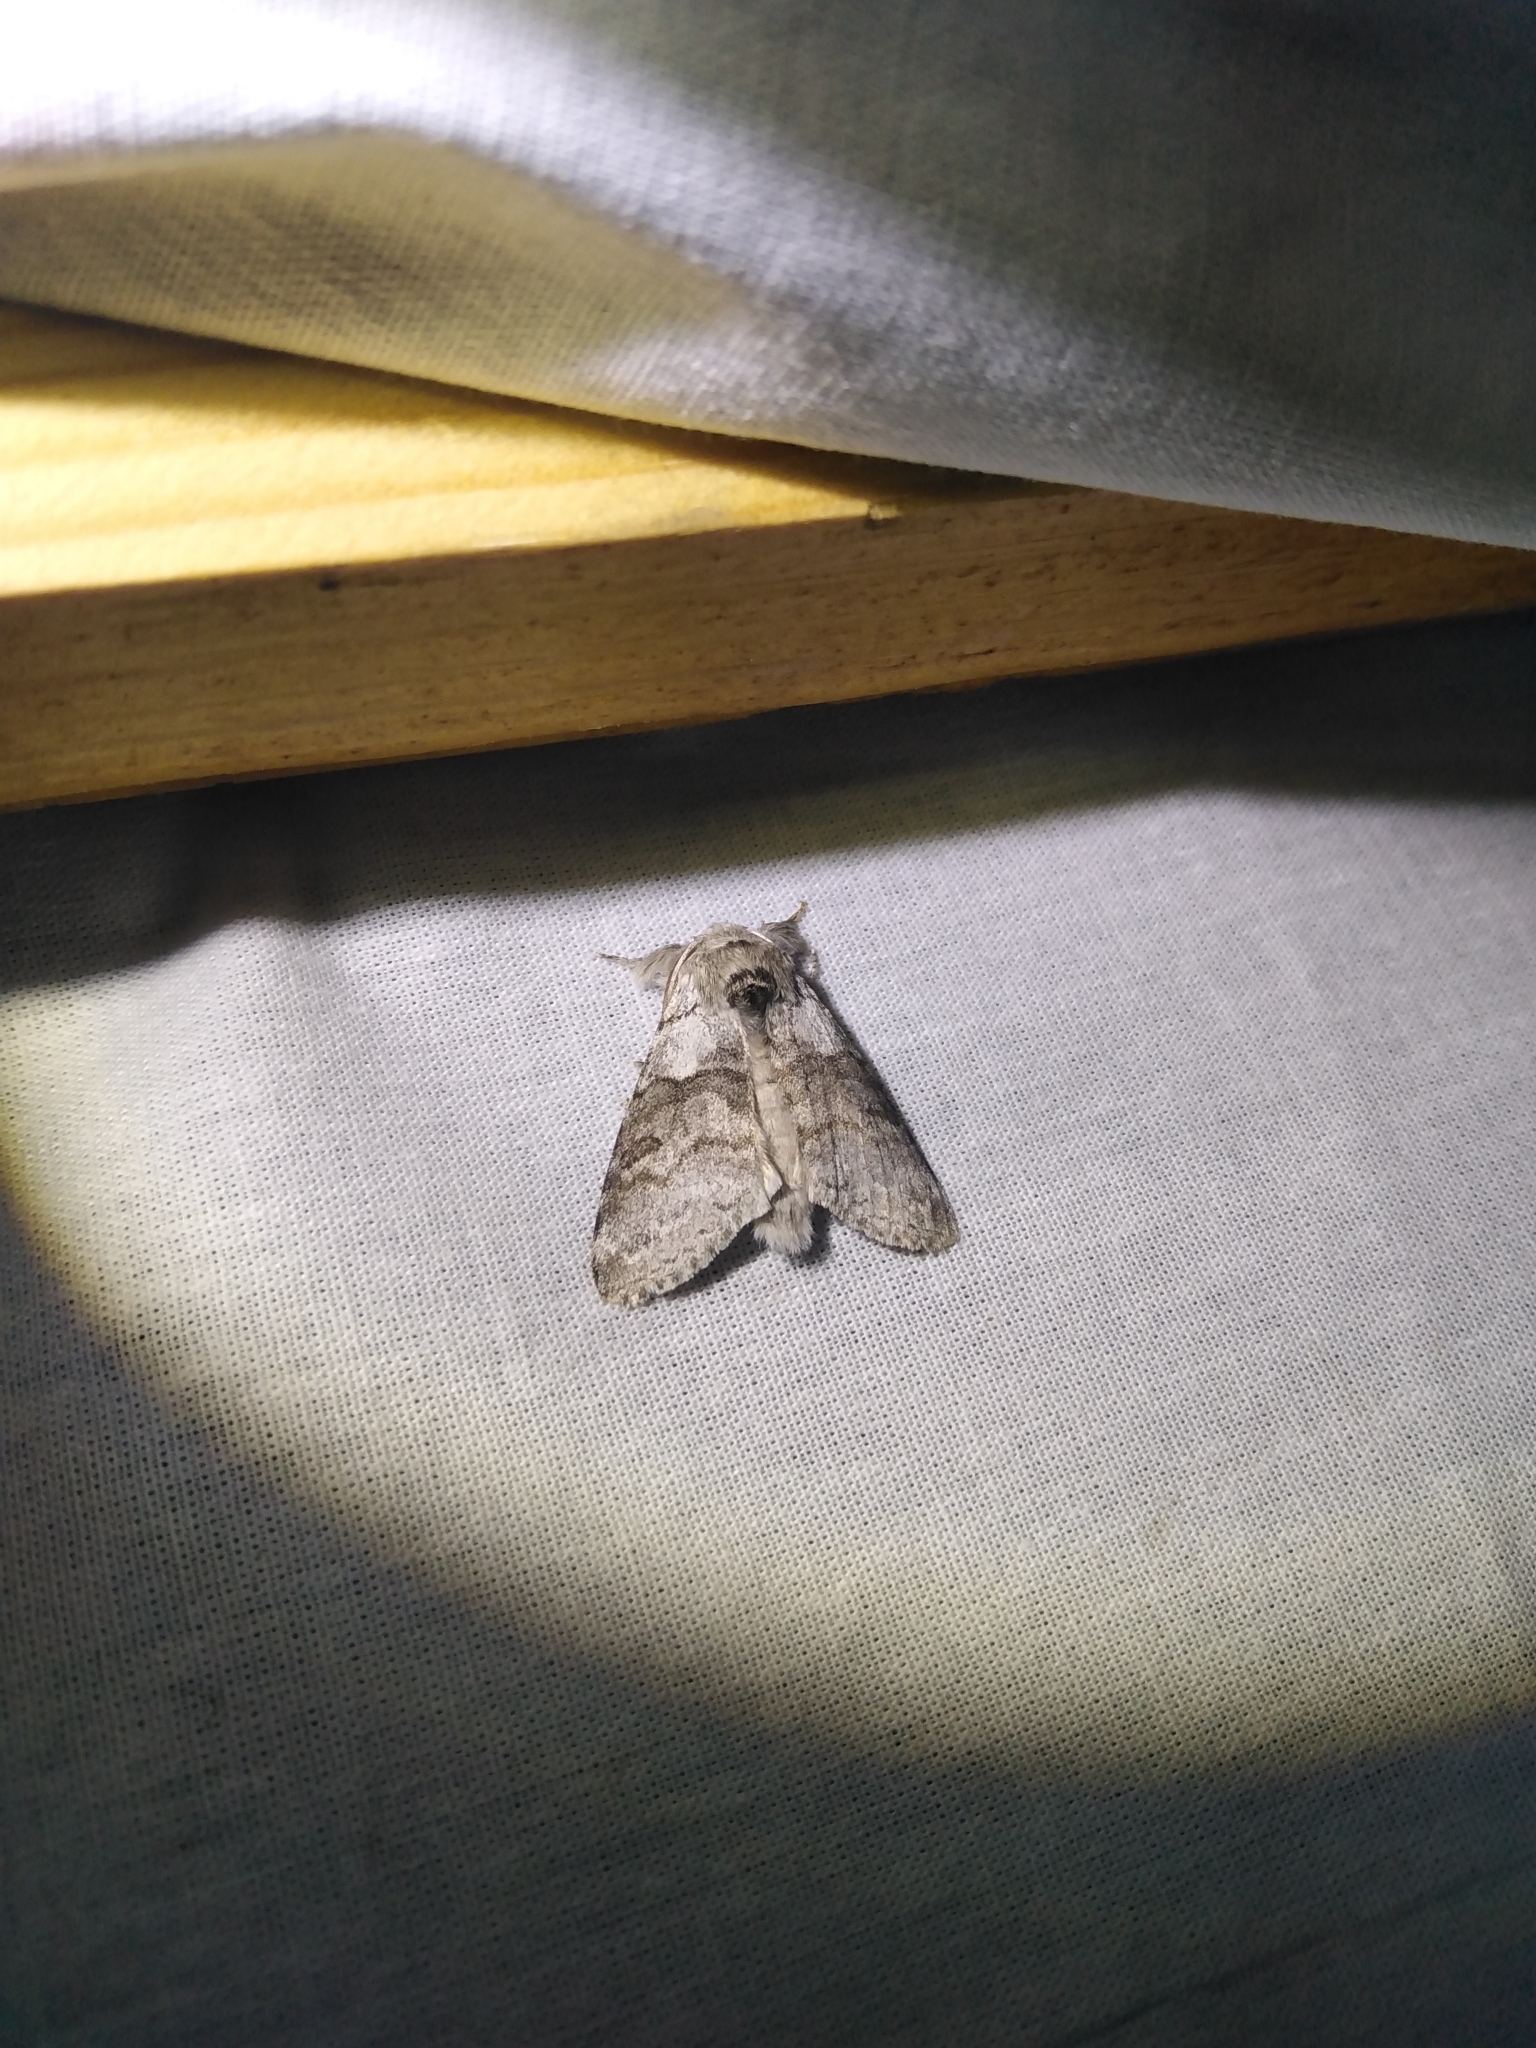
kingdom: Animalia
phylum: Arthropoda
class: Insecta
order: Lepidoptera
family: Erebidae
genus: Calliteara
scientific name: Calliteara pudibunda
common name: Pale tussock
